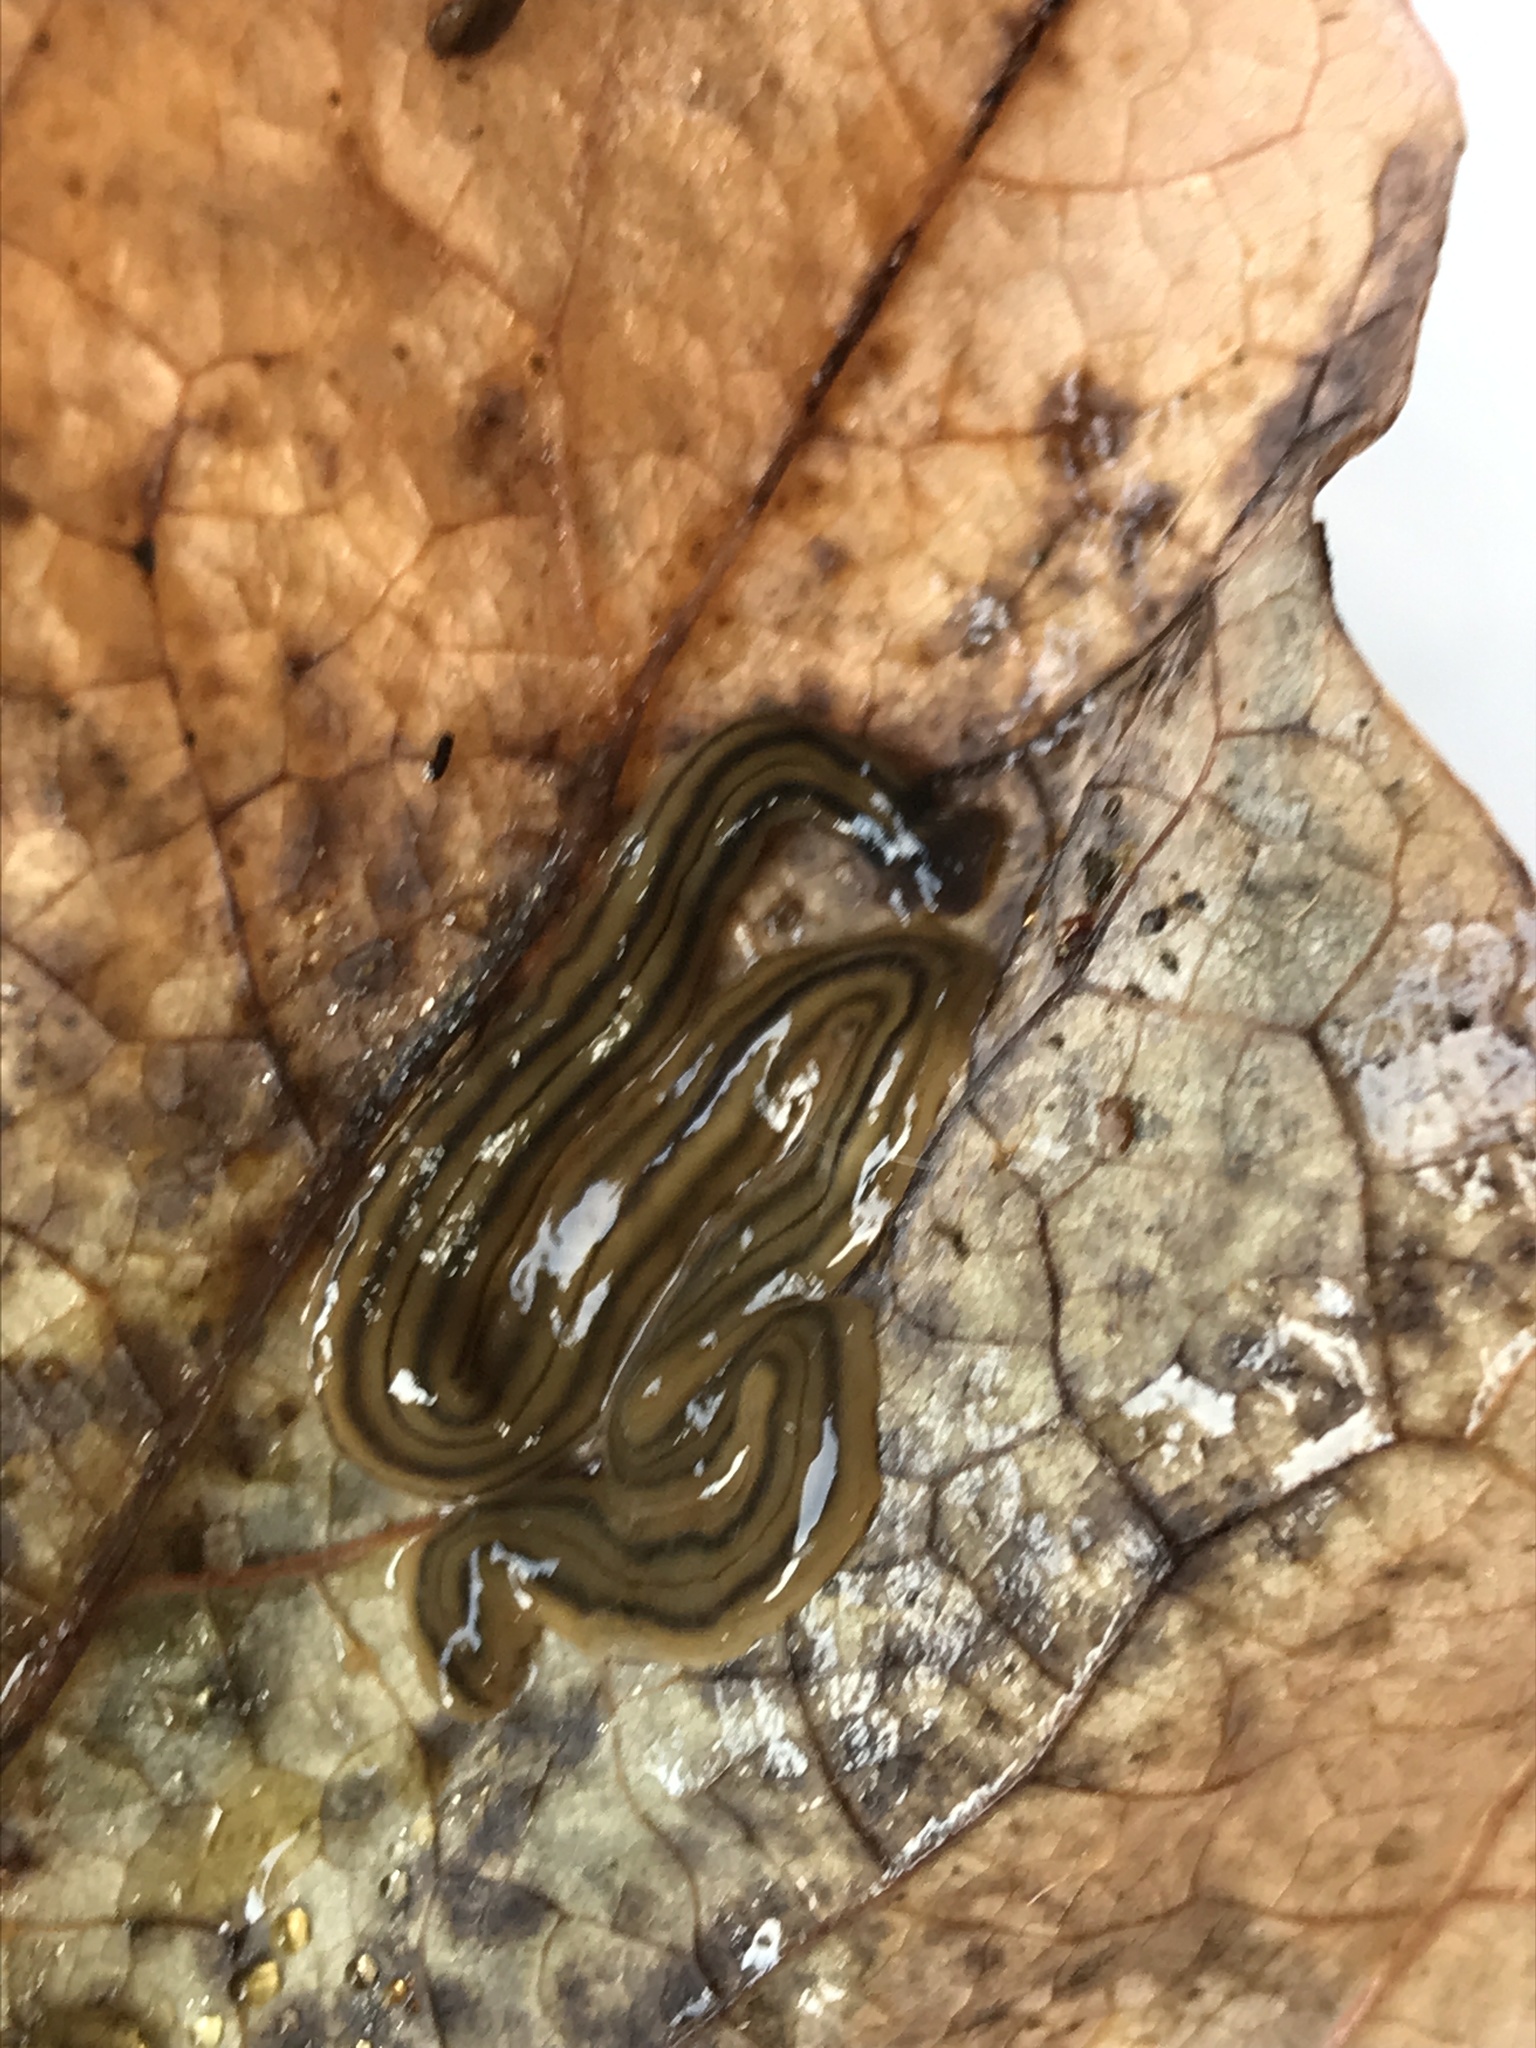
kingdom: Animalia
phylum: Platyhelminthes
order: Tricladida
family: Geoplanidae
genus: Bipalium
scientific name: Bipalium kewense
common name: Hammerhead flatworm
